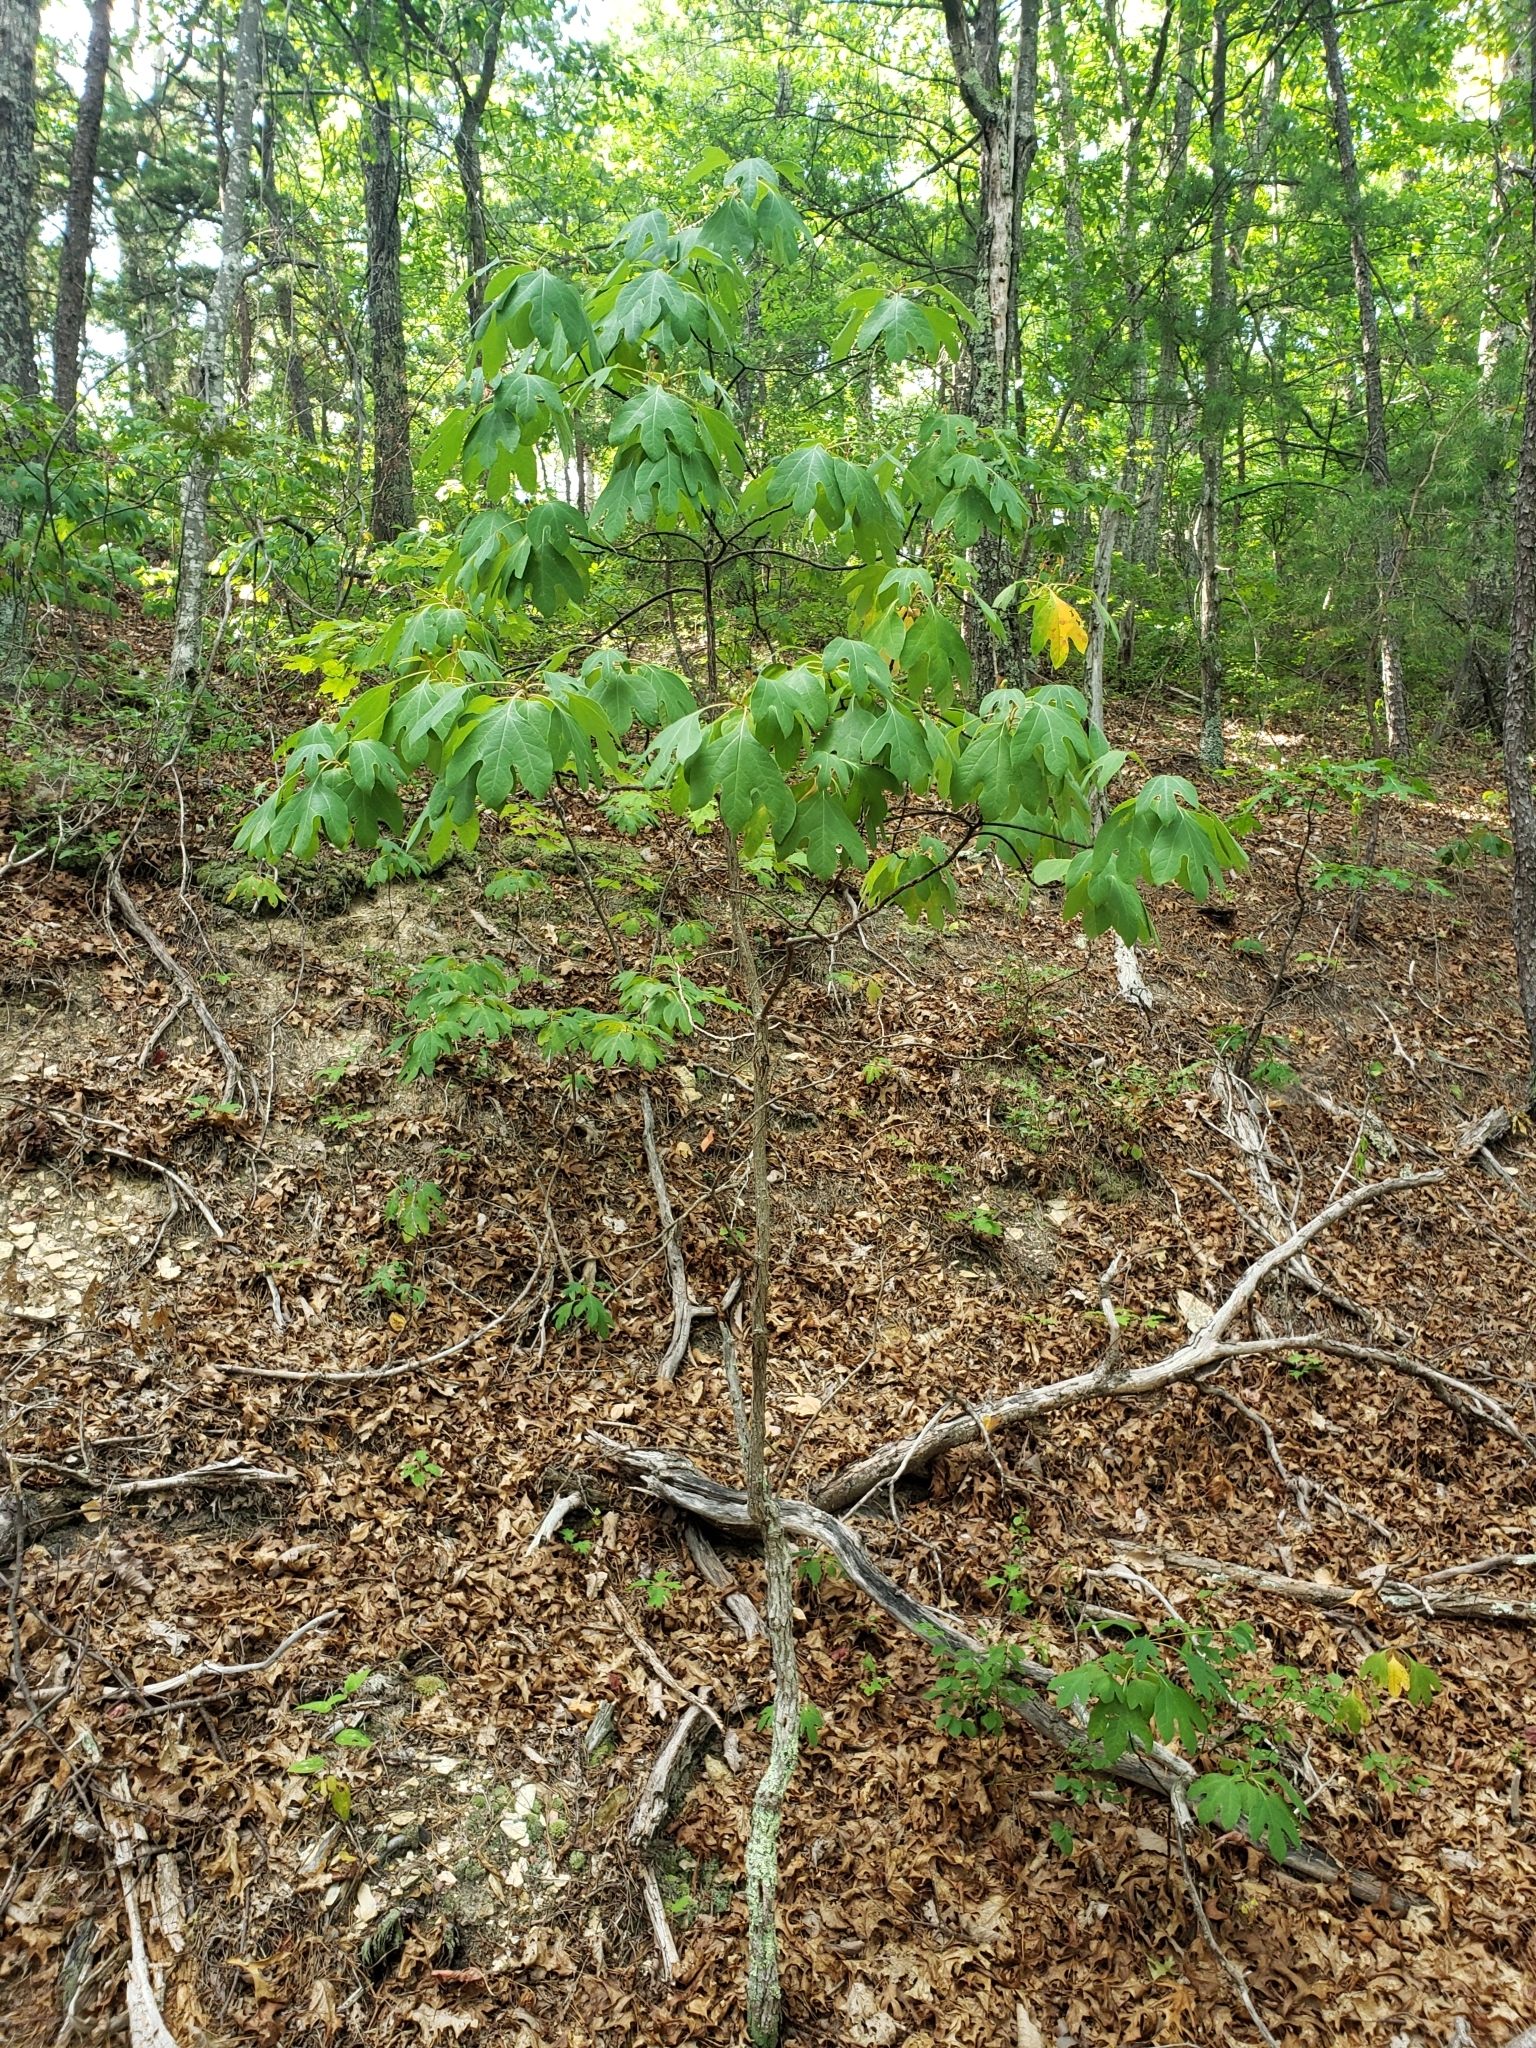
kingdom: Plantae
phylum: Tracheophyta
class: Magnoliopsida
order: Laurales
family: Lauraceae
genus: Sassafras
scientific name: Sassafras albidum
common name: Sassafras
